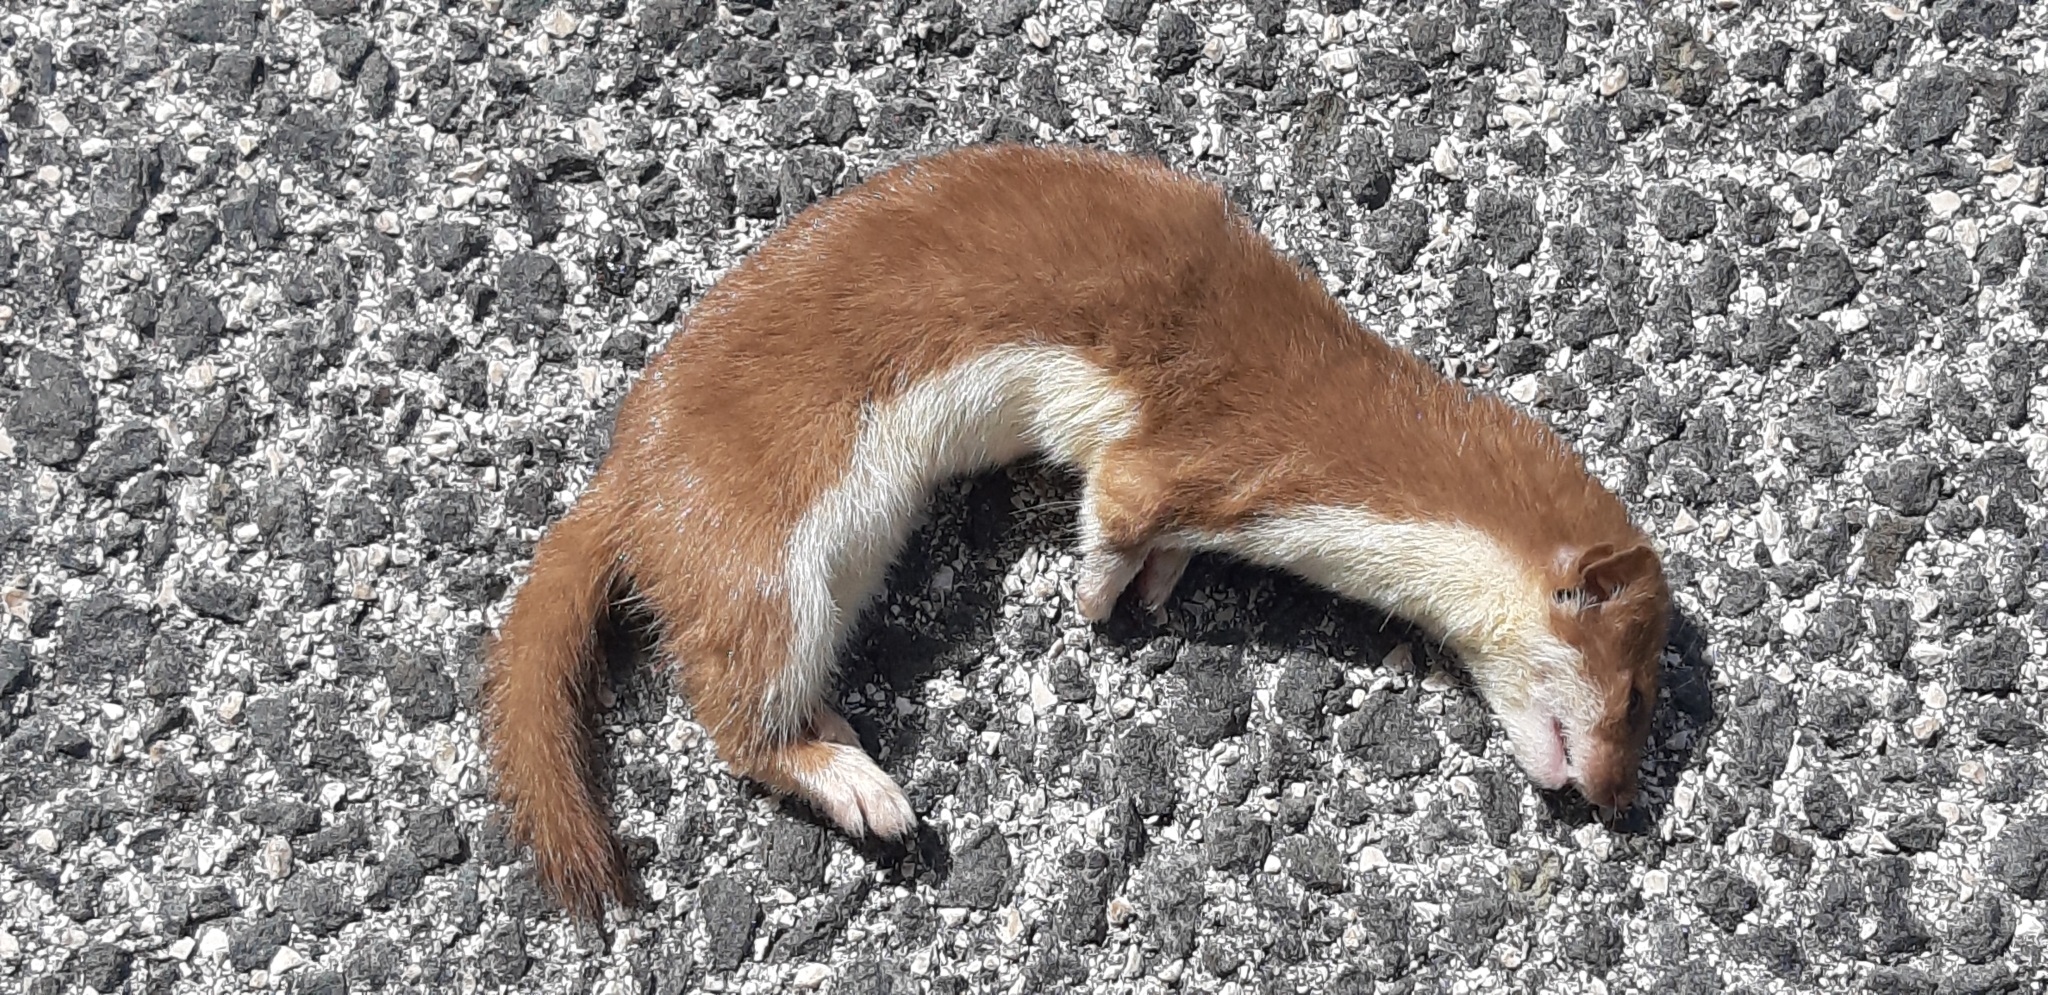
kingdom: Animalia
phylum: Chordata
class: Mammalia
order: Carnivora
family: Mustelidae
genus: Mustela
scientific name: Mustela nivalis
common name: Least weasel
